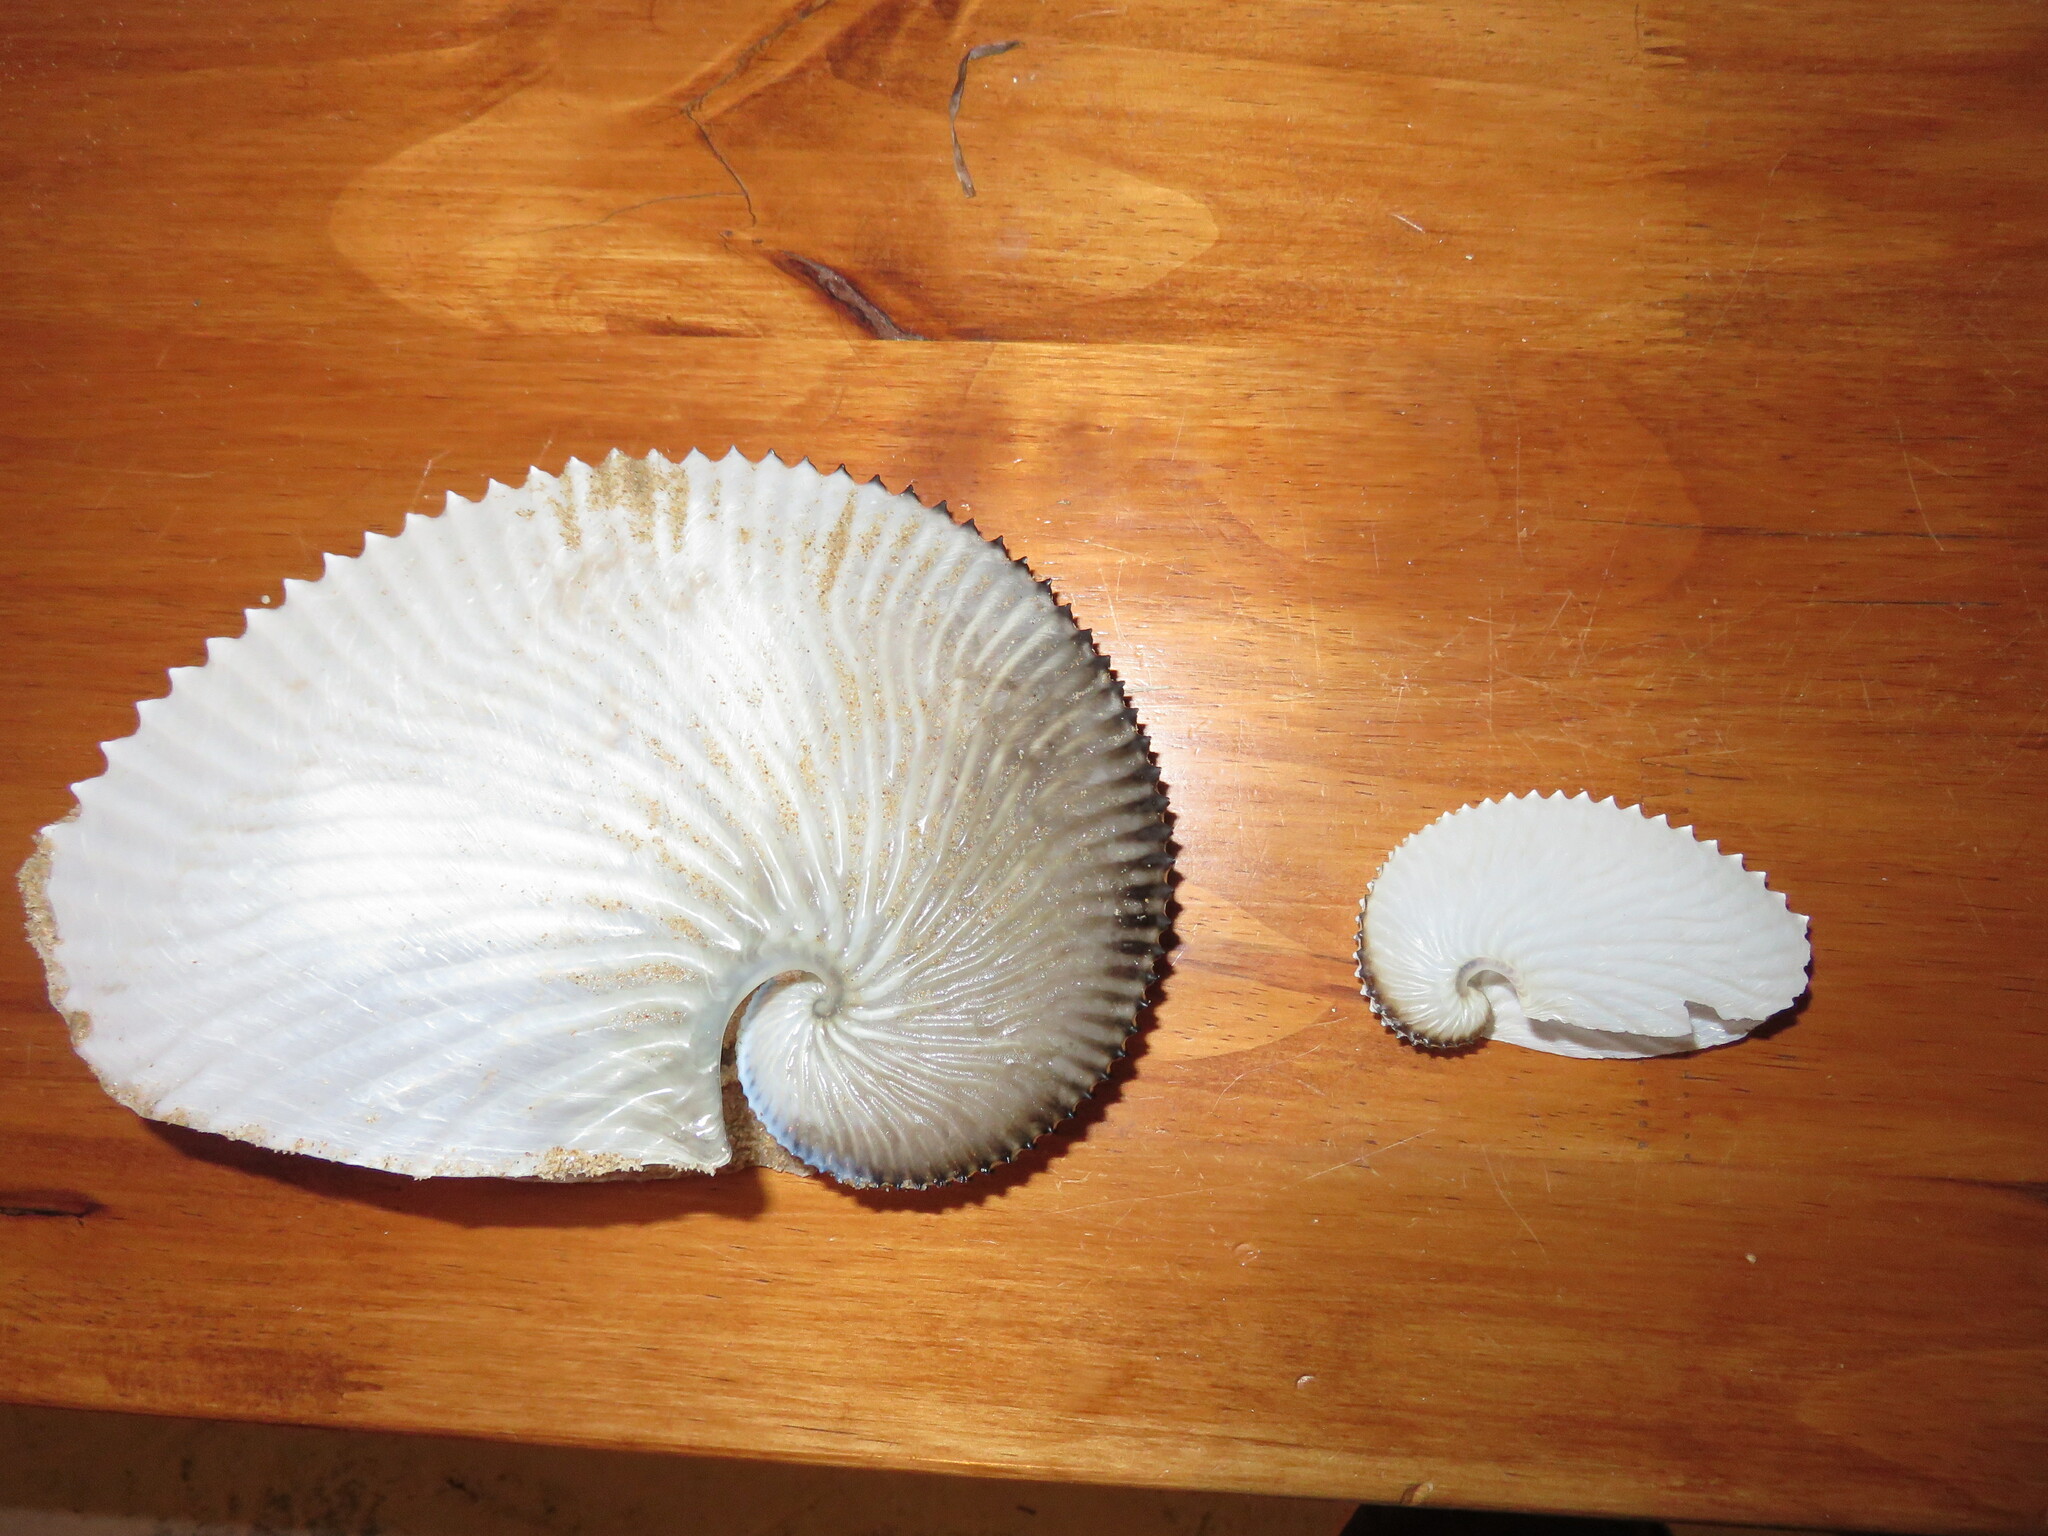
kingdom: Animalia
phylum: Mollusca
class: Cephalopoda
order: Octopoda
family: Argonautidae
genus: Argonauta
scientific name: Argonauta argo
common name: Common paper nautilus
